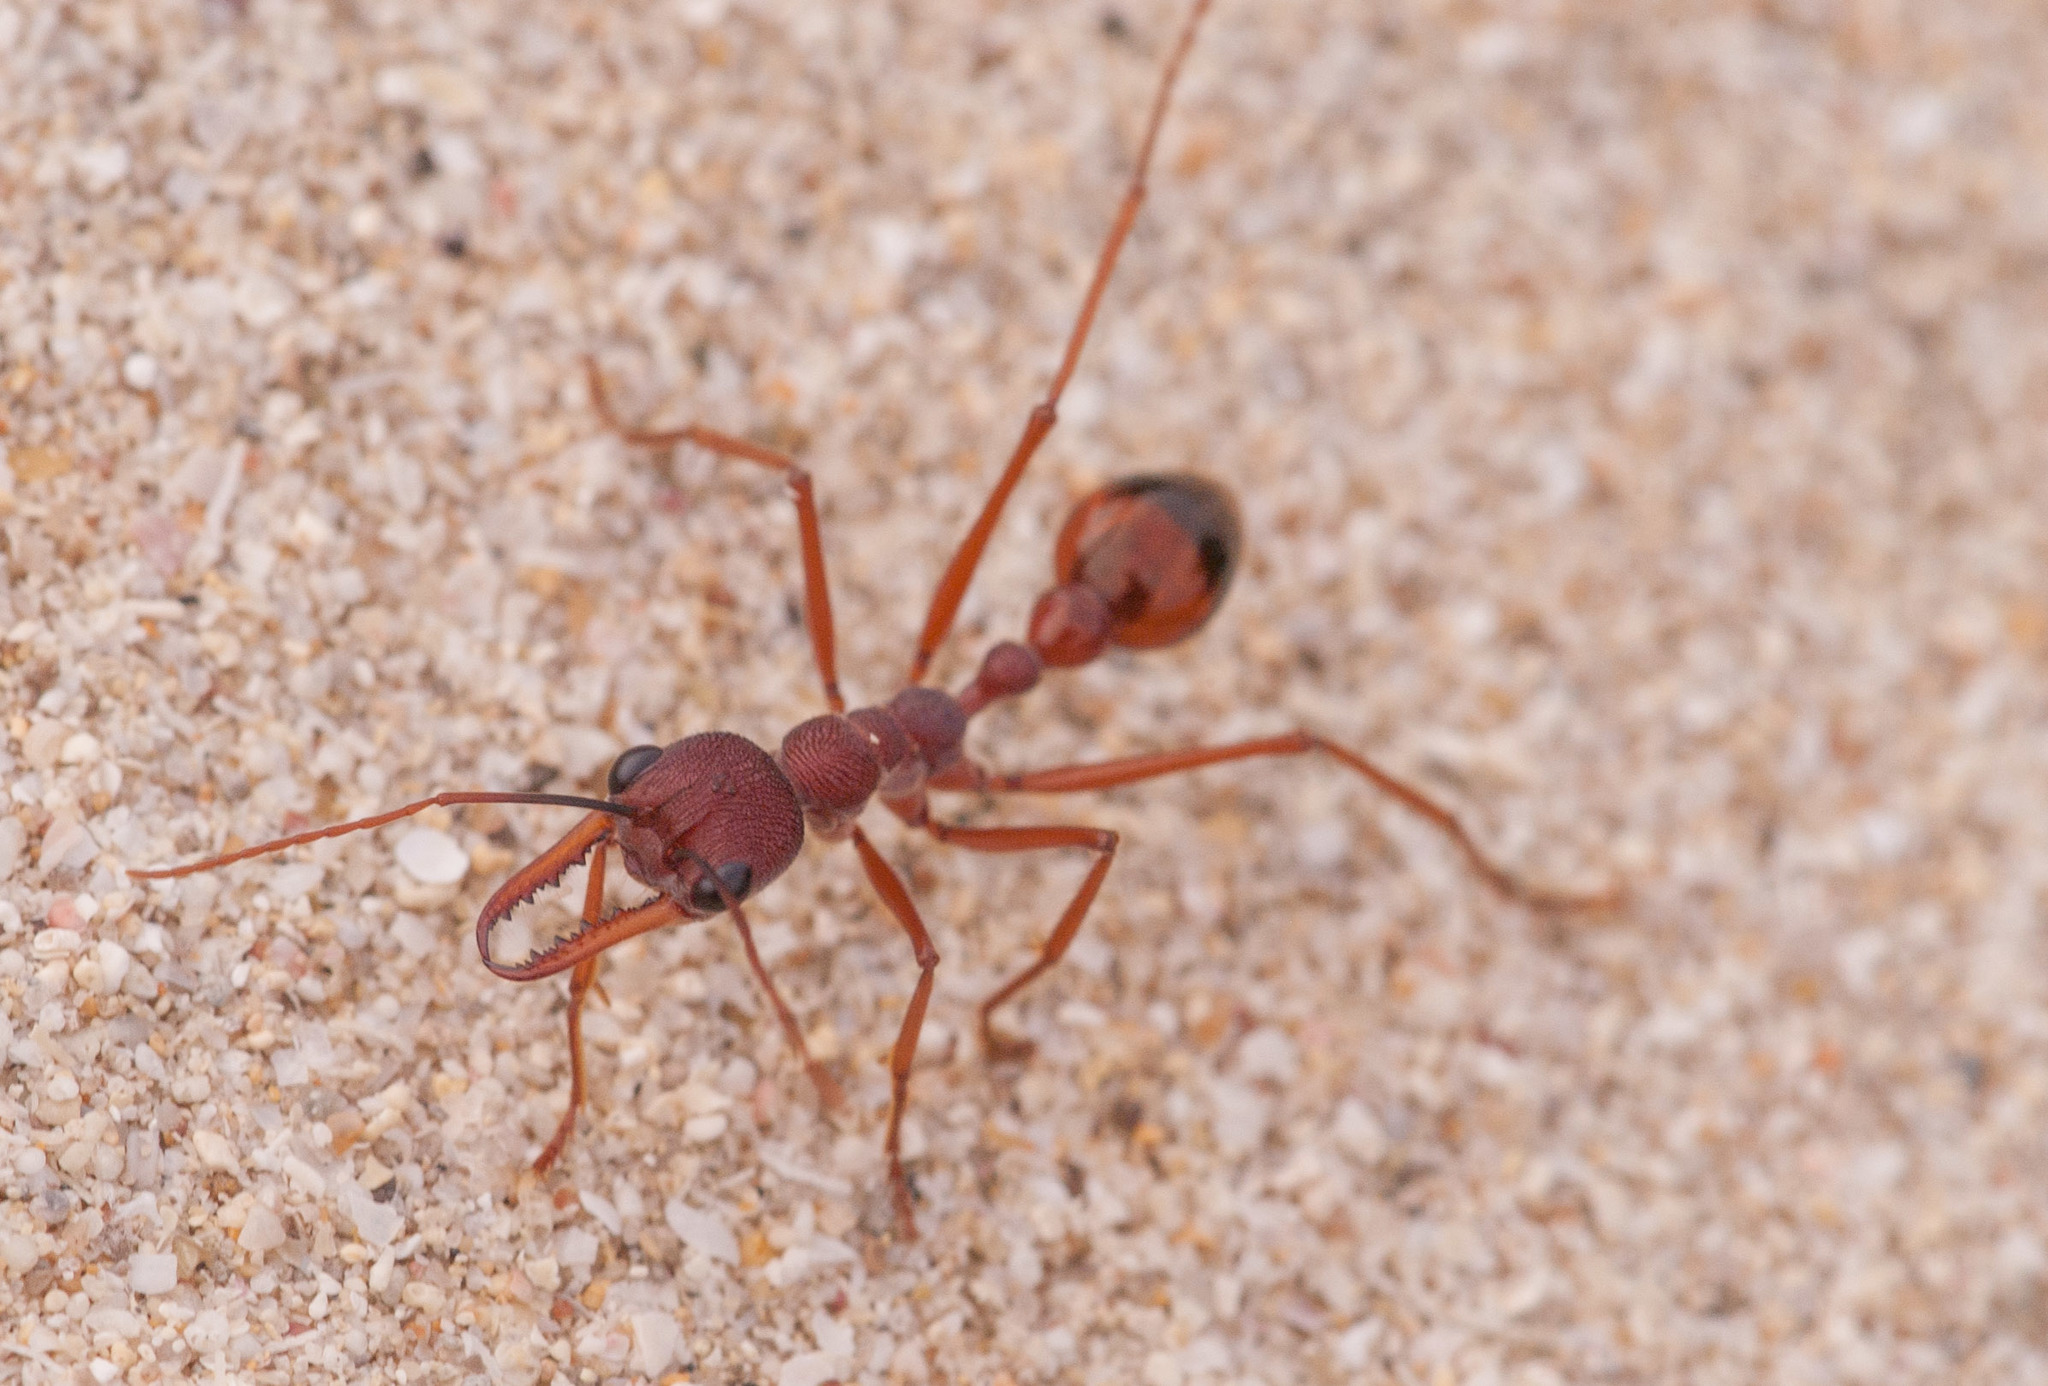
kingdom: Animalia
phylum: Arthropoda
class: Insecta
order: Hymenoptera
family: Formicidae
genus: Myrmecia
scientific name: Myrmecia nigriscapa
